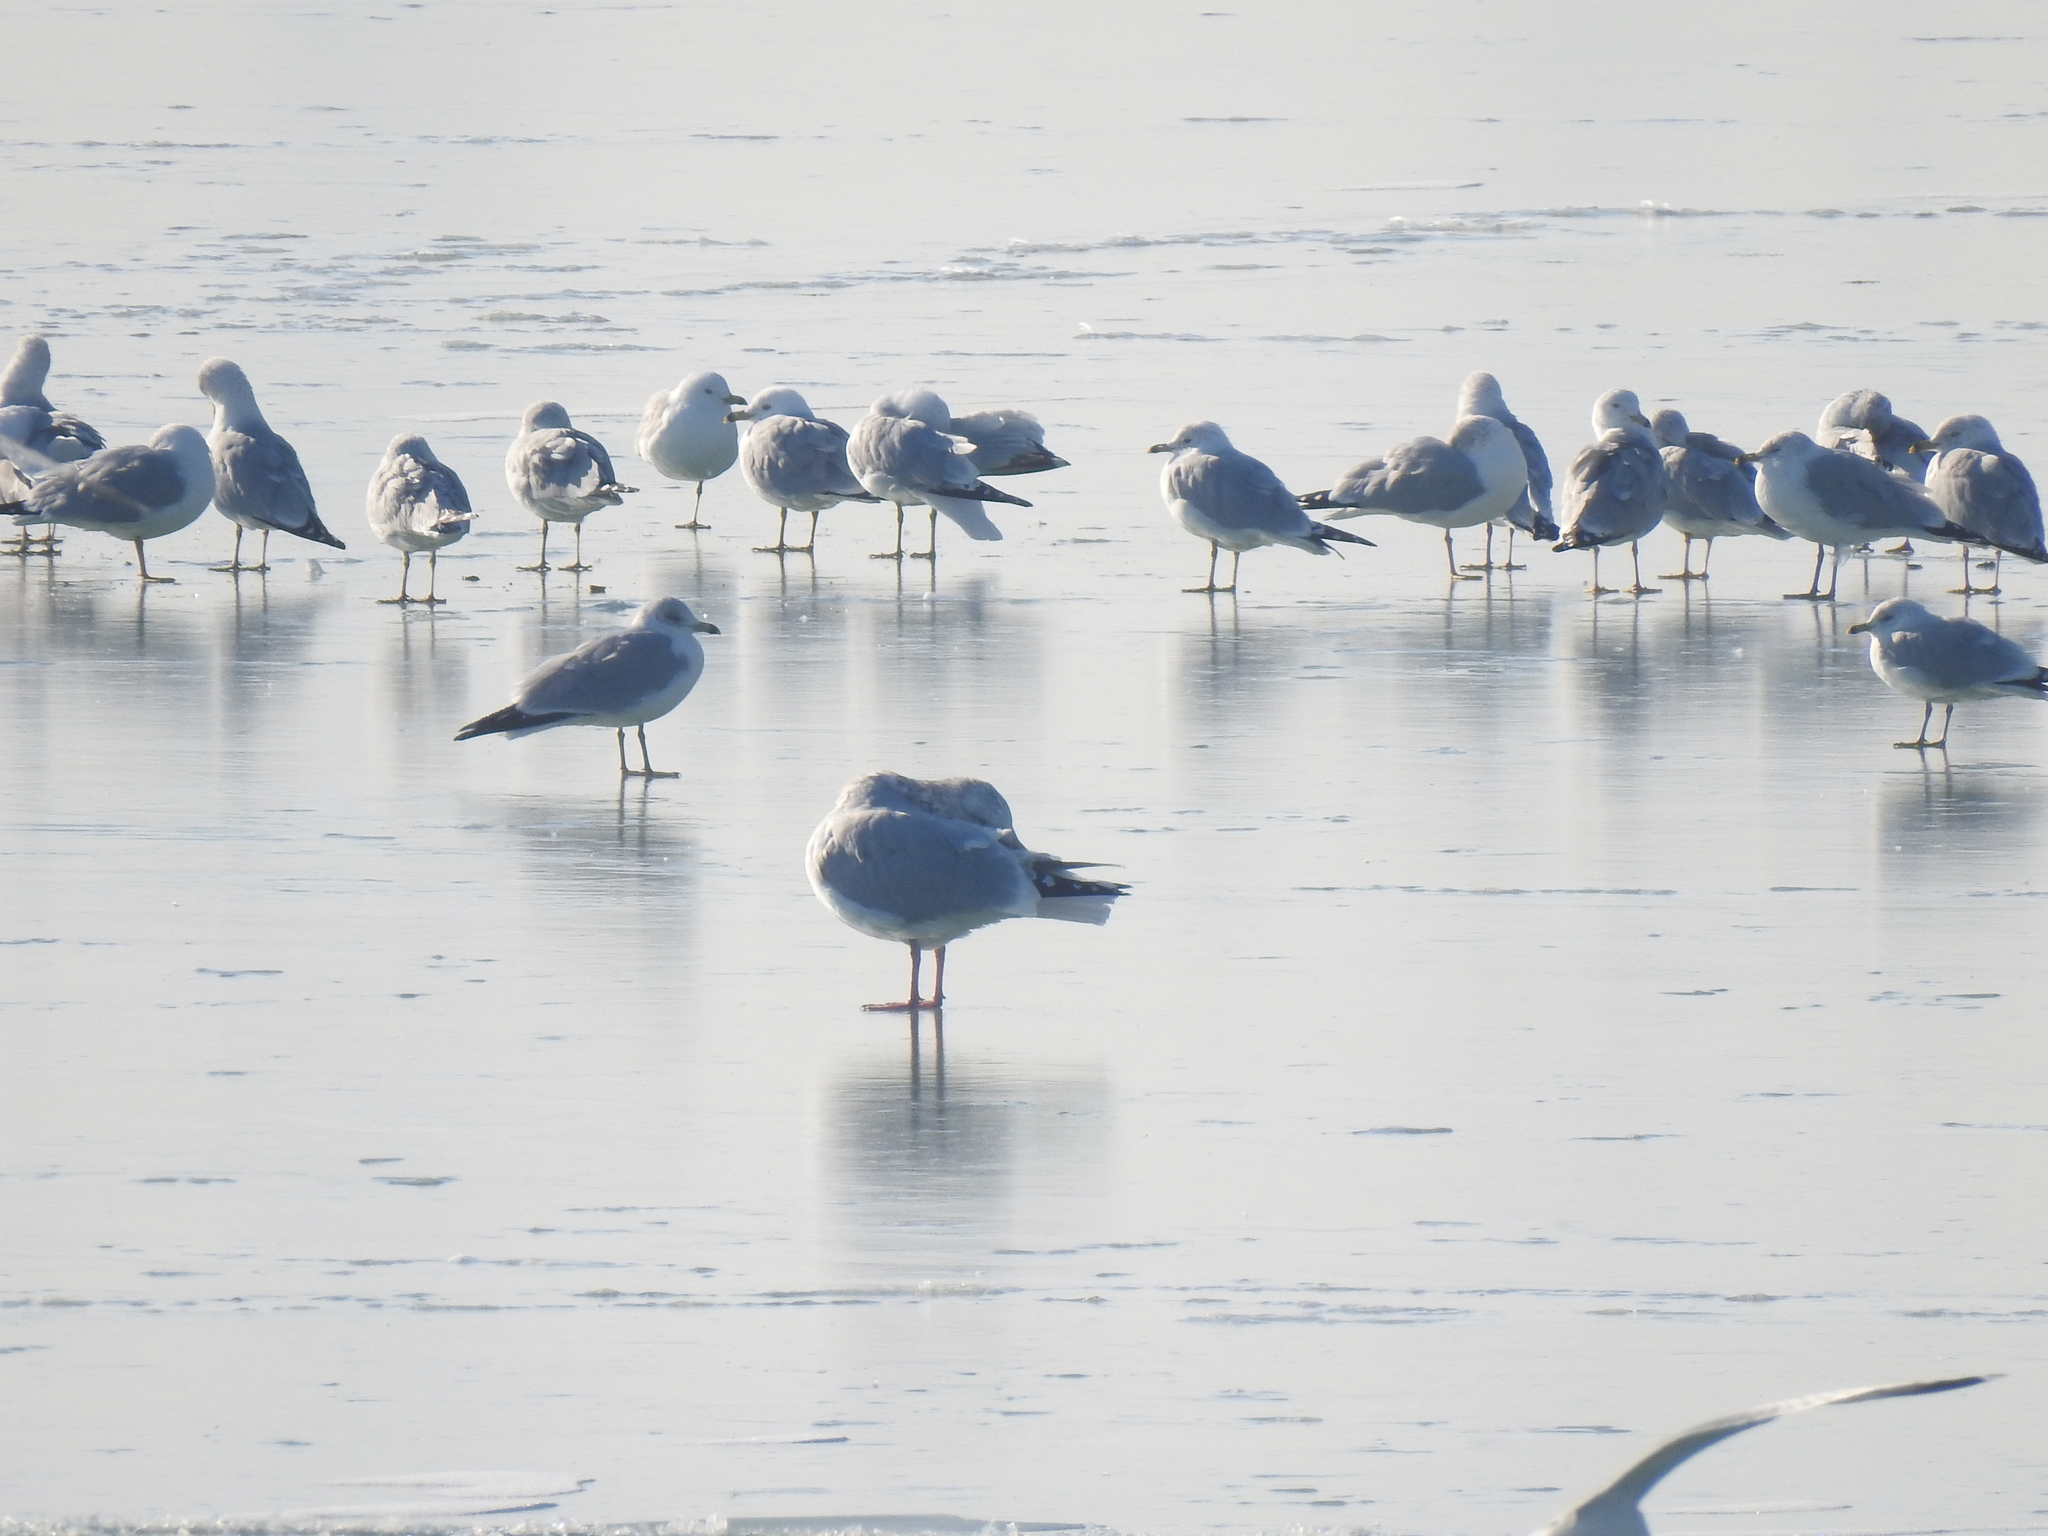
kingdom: Animalia
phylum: Chordata
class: Aves
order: Charadriiformes
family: Laridae
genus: Larus
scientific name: Larus delawarensis
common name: Ring-billed gull
